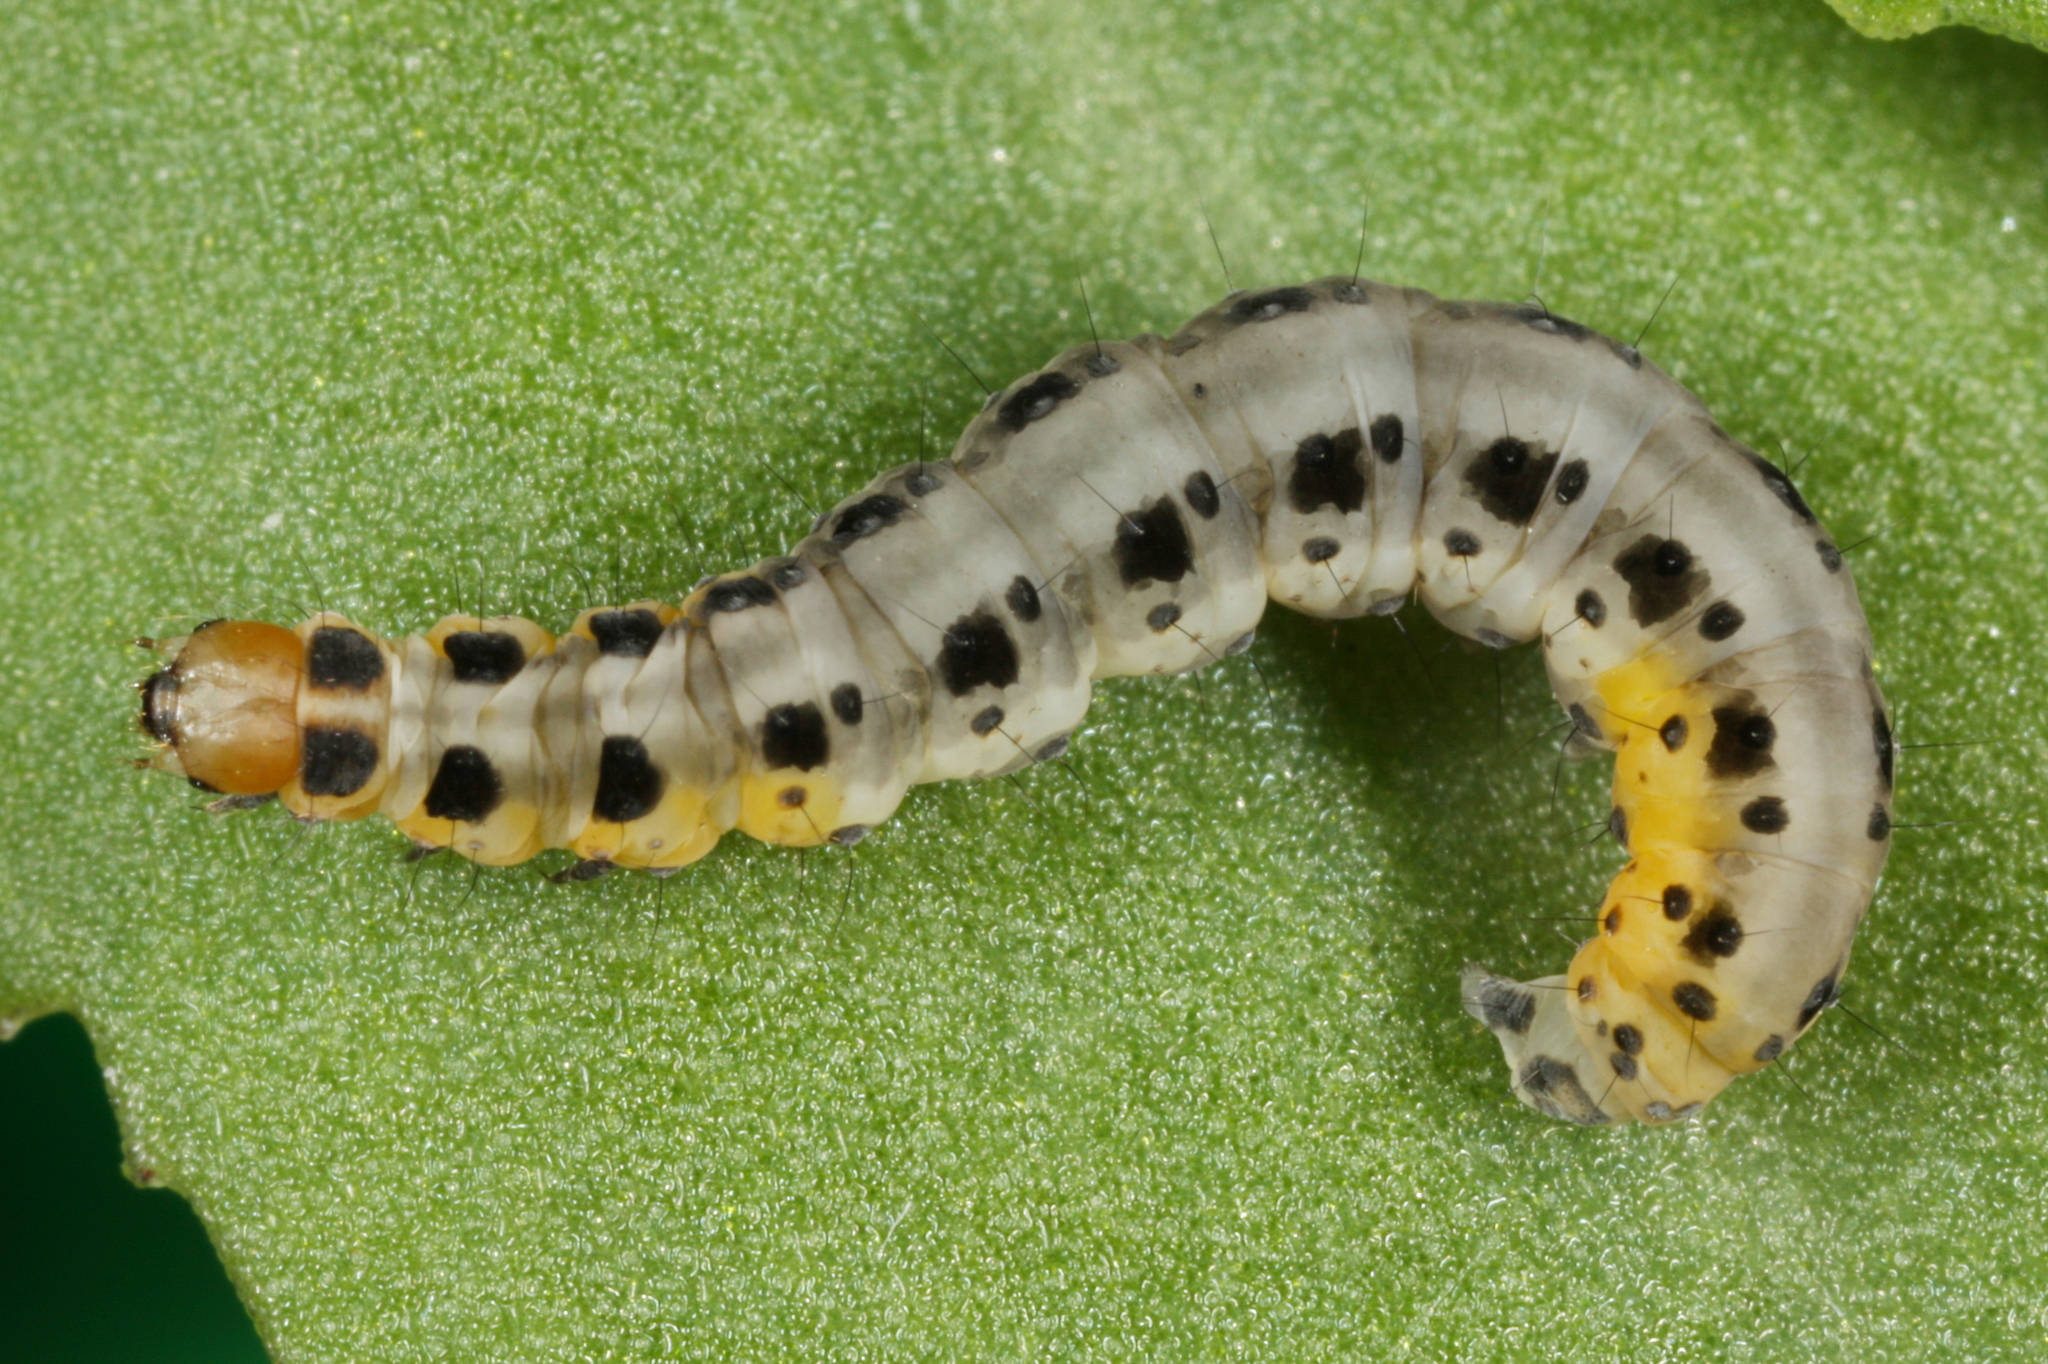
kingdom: Animalia
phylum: Arthropoda
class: Insecta
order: Lepidoptera
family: Yponomeutidae
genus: Yponomeuta
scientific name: Yponomeuta vigintipunctata
